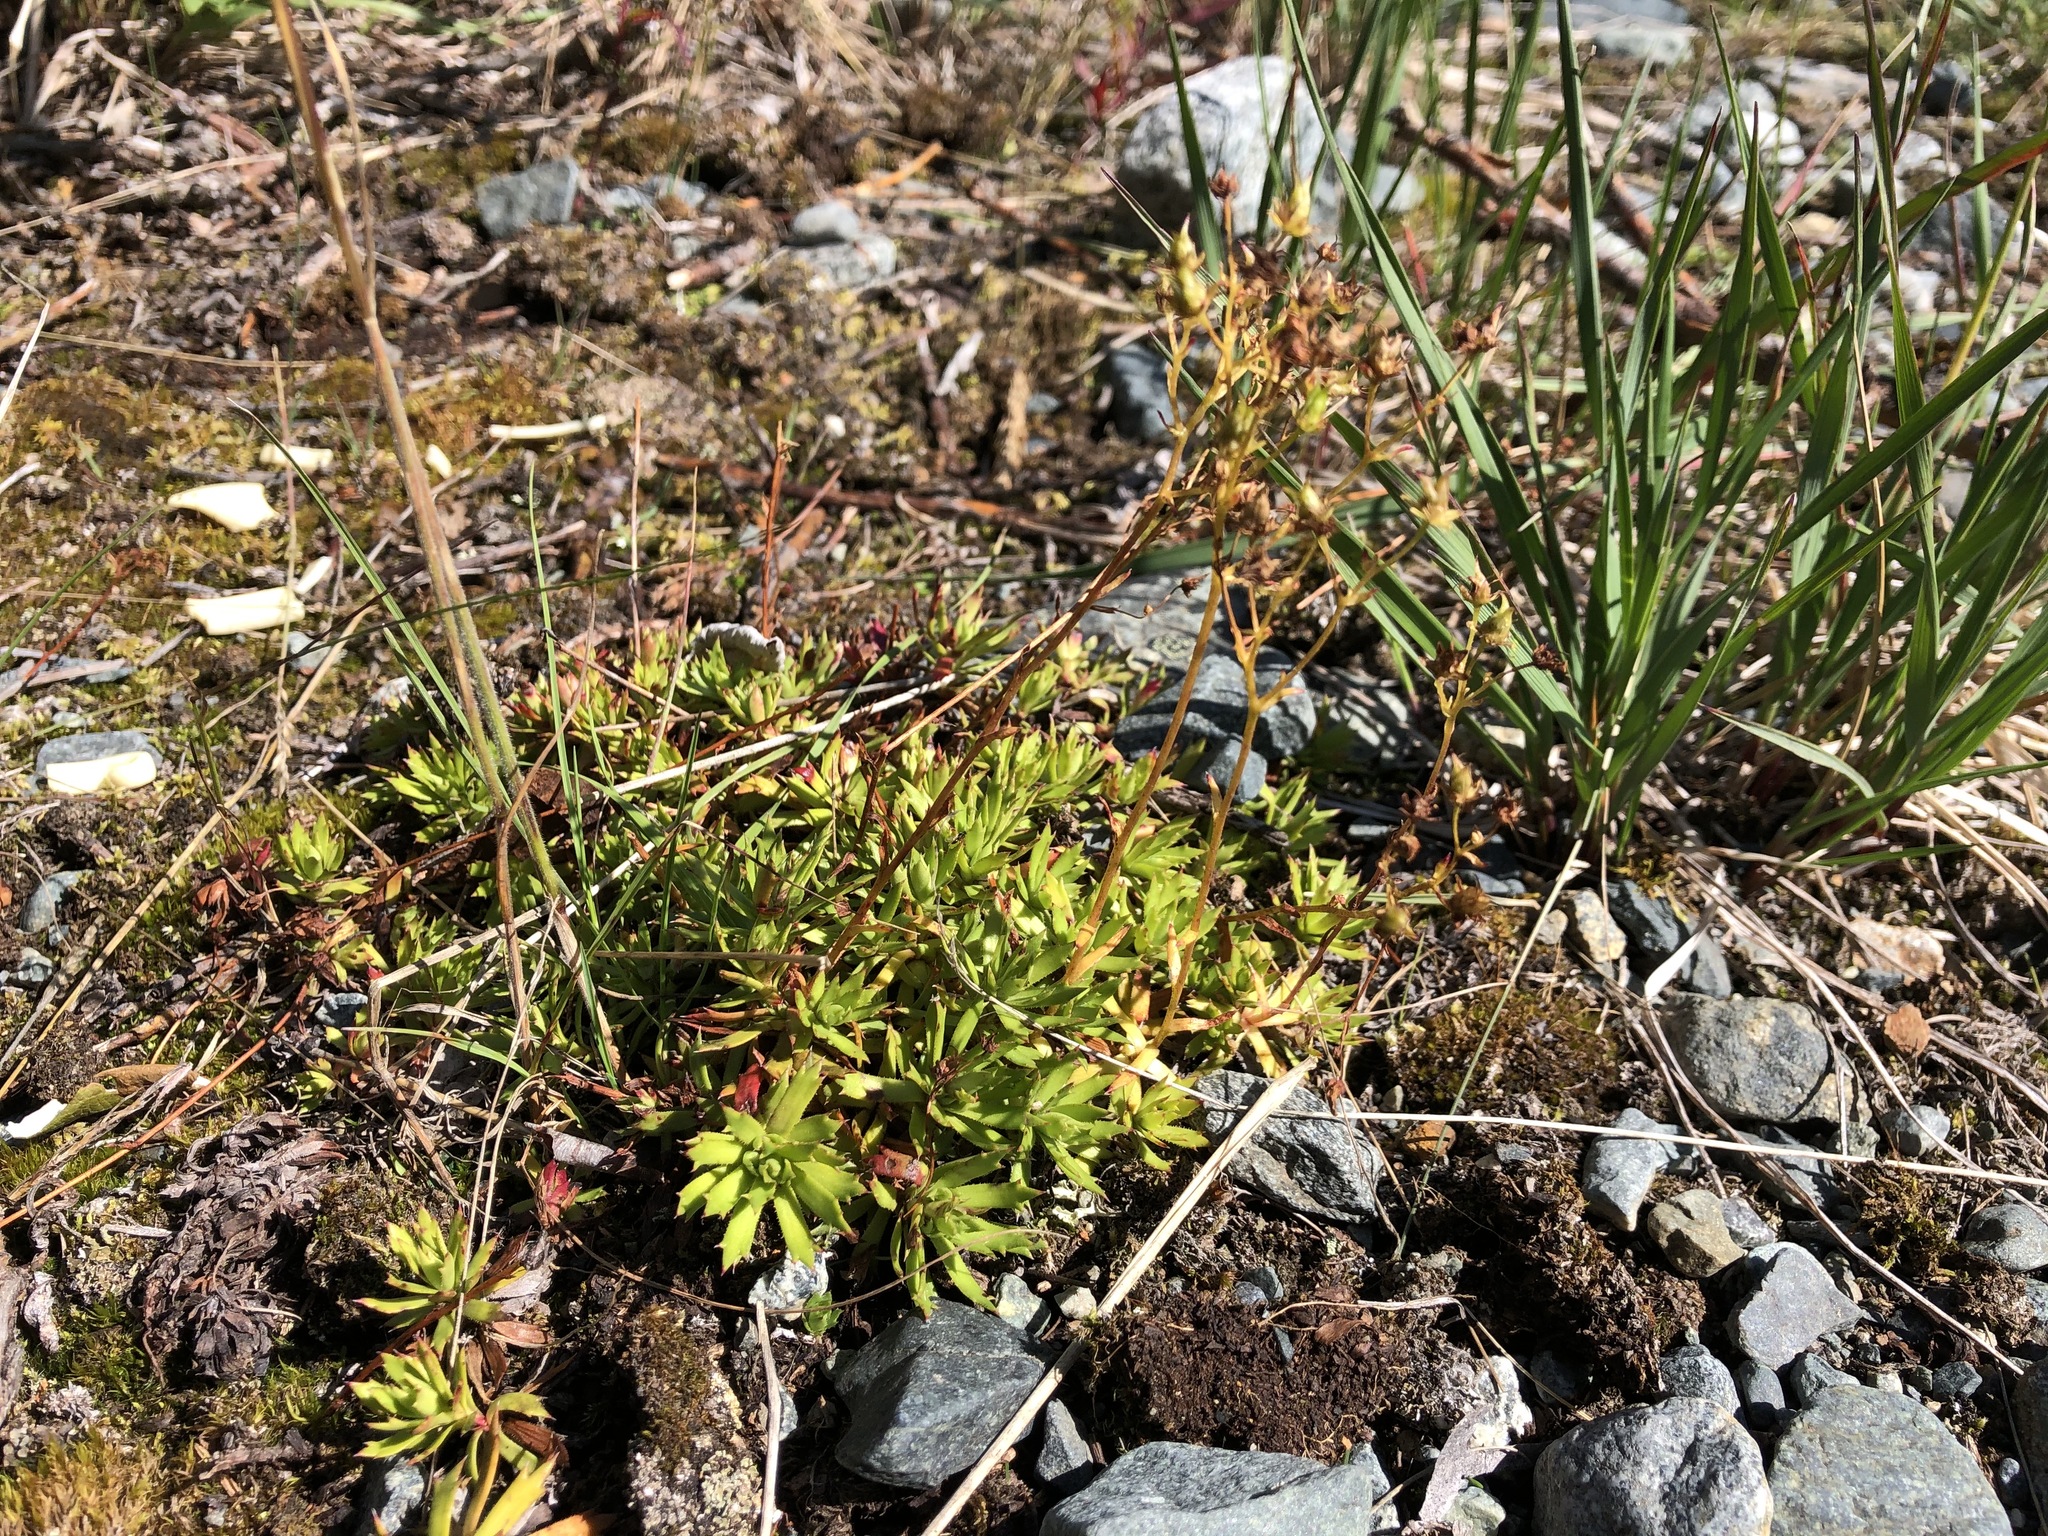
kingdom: Plantae
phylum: Tracheophyta
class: Magnoliopsida
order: Saxifragales
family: Saxifragaceae
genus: Saxifraga
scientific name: Saxifraga tricuspidata
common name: Prickly saxifrage
